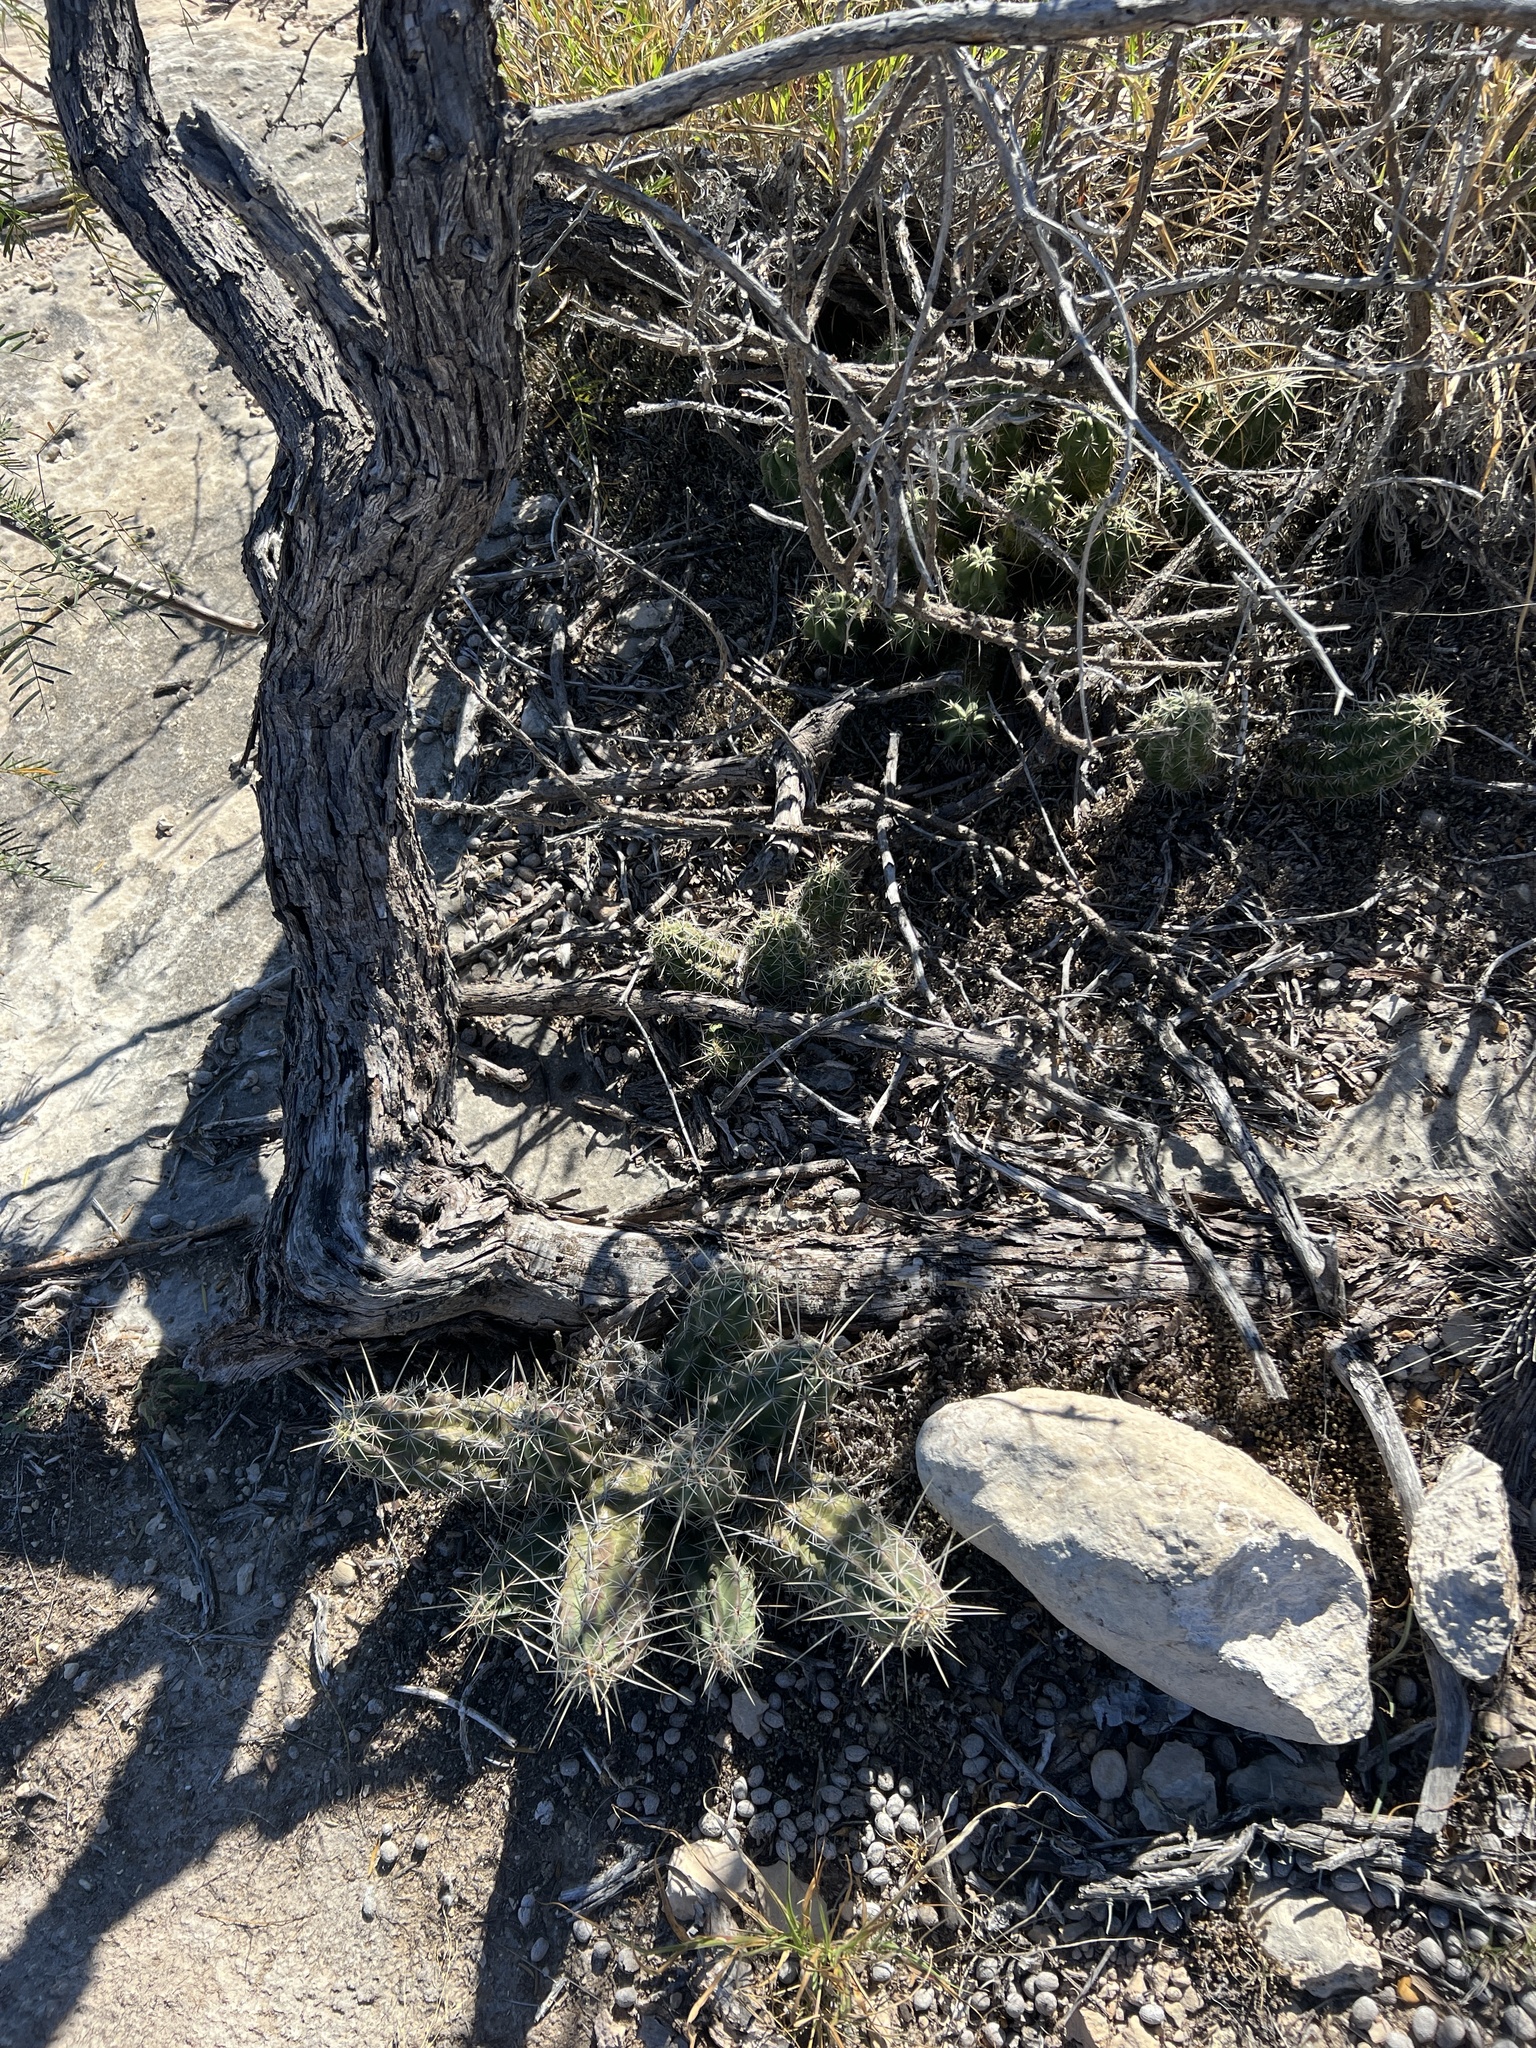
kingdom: Plantae
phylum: Tracheophyta
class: Magnoliopsida
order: Caryophyllales
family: Cactaceae
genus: Echinocereus
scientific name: Echinocereus enneacanthus
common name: Pitaya
